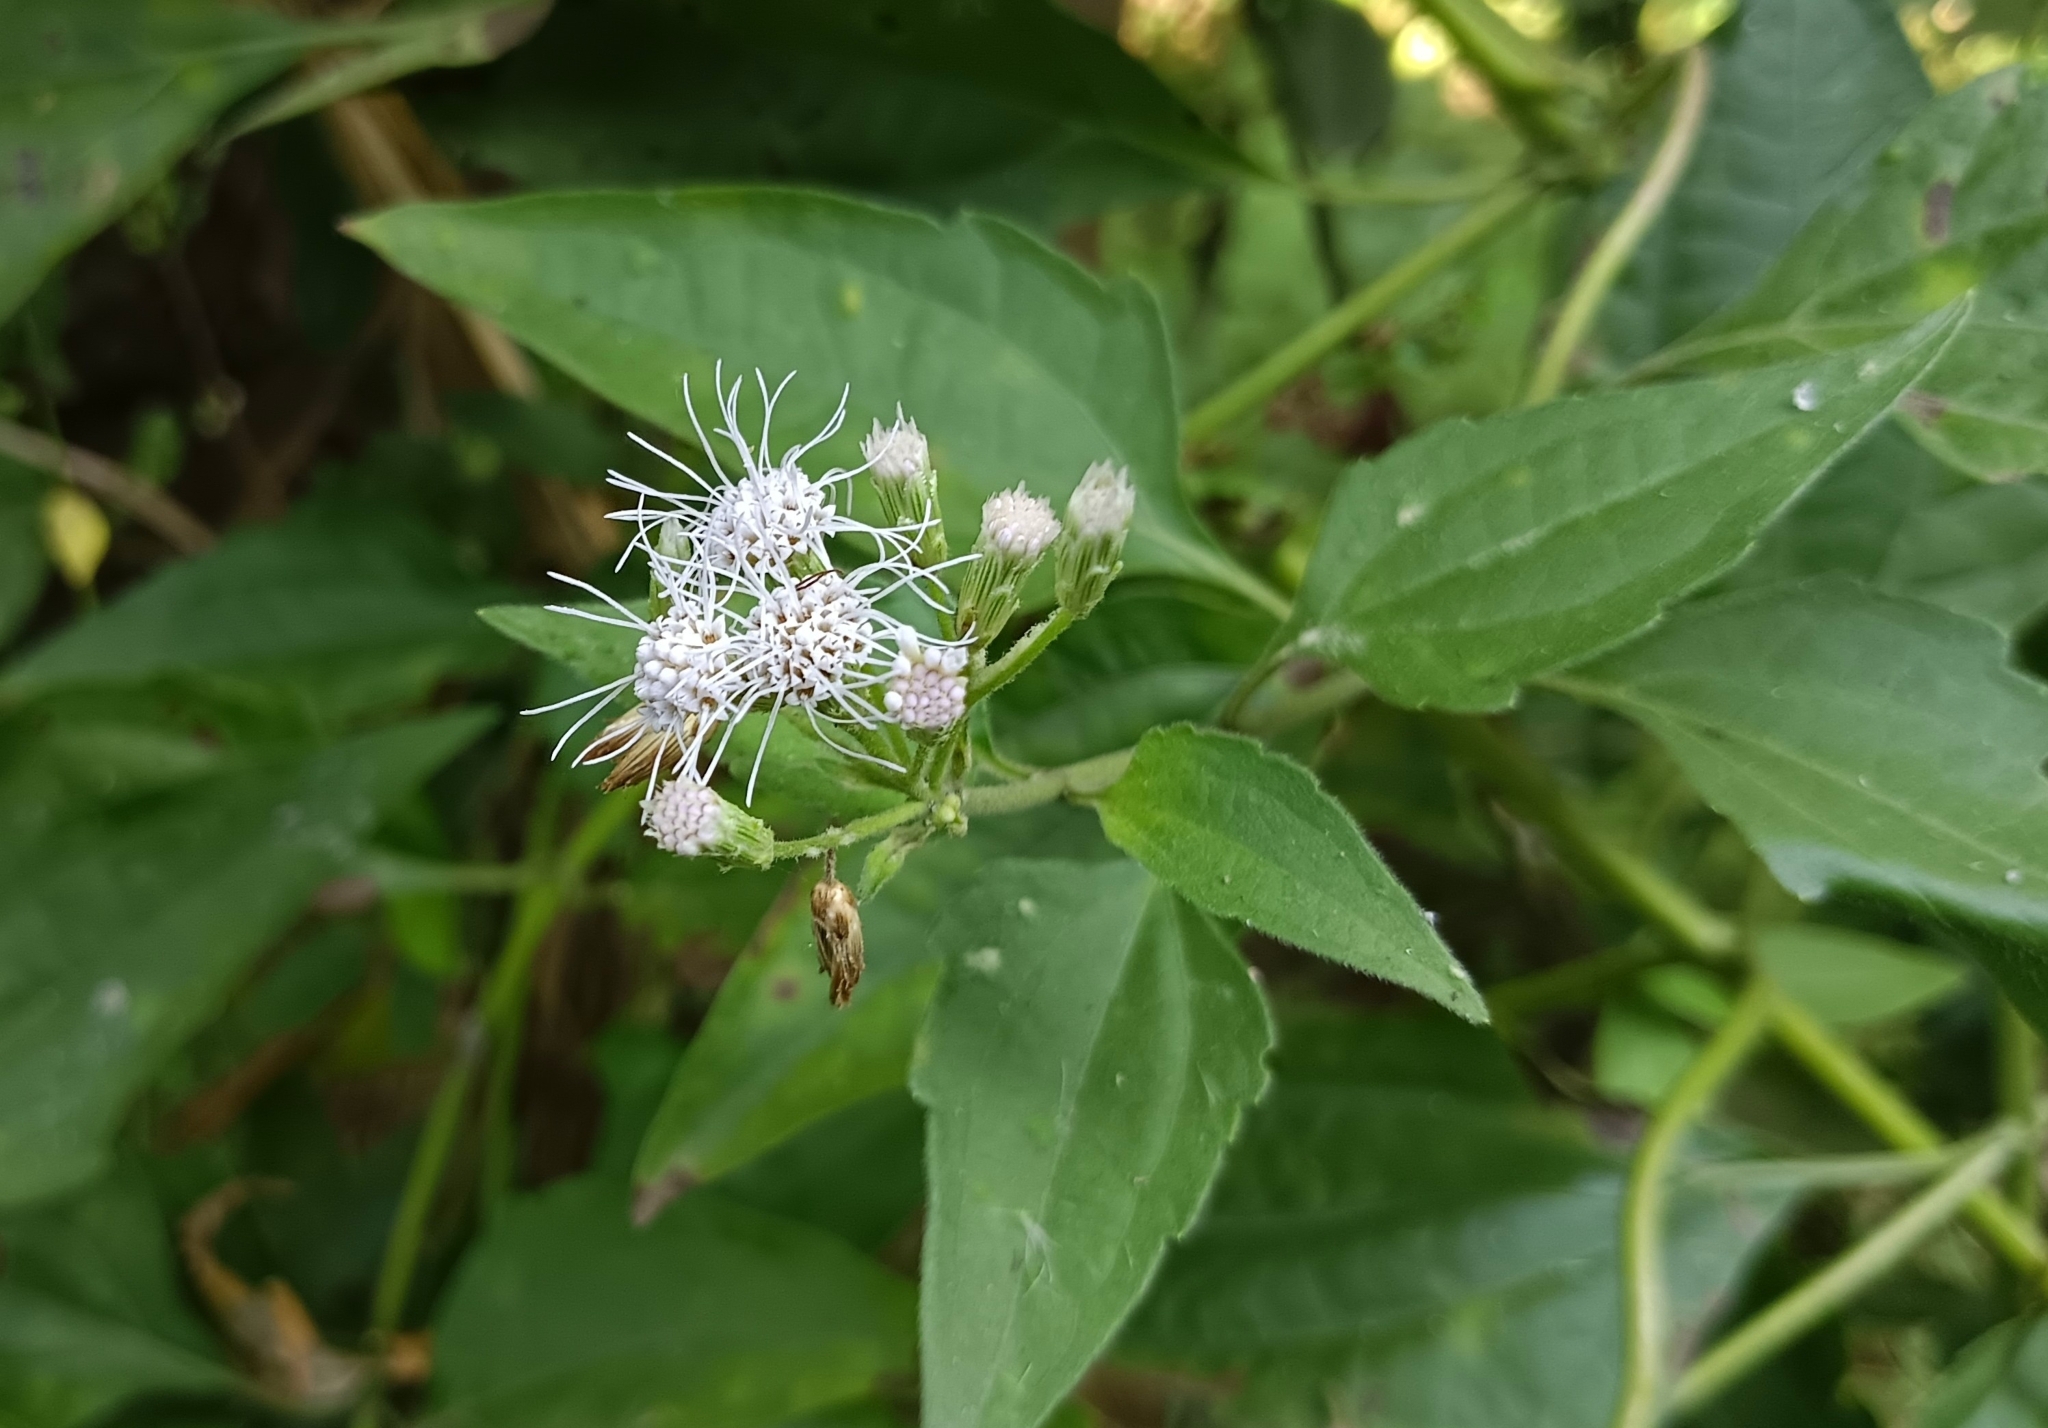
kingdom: Plantae
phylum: Tracheophyta
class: Magnoliopsida
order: Asterales
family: Asteraceae
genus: Chromolaena
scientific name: Chromolaena odorata
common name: Siamweed
